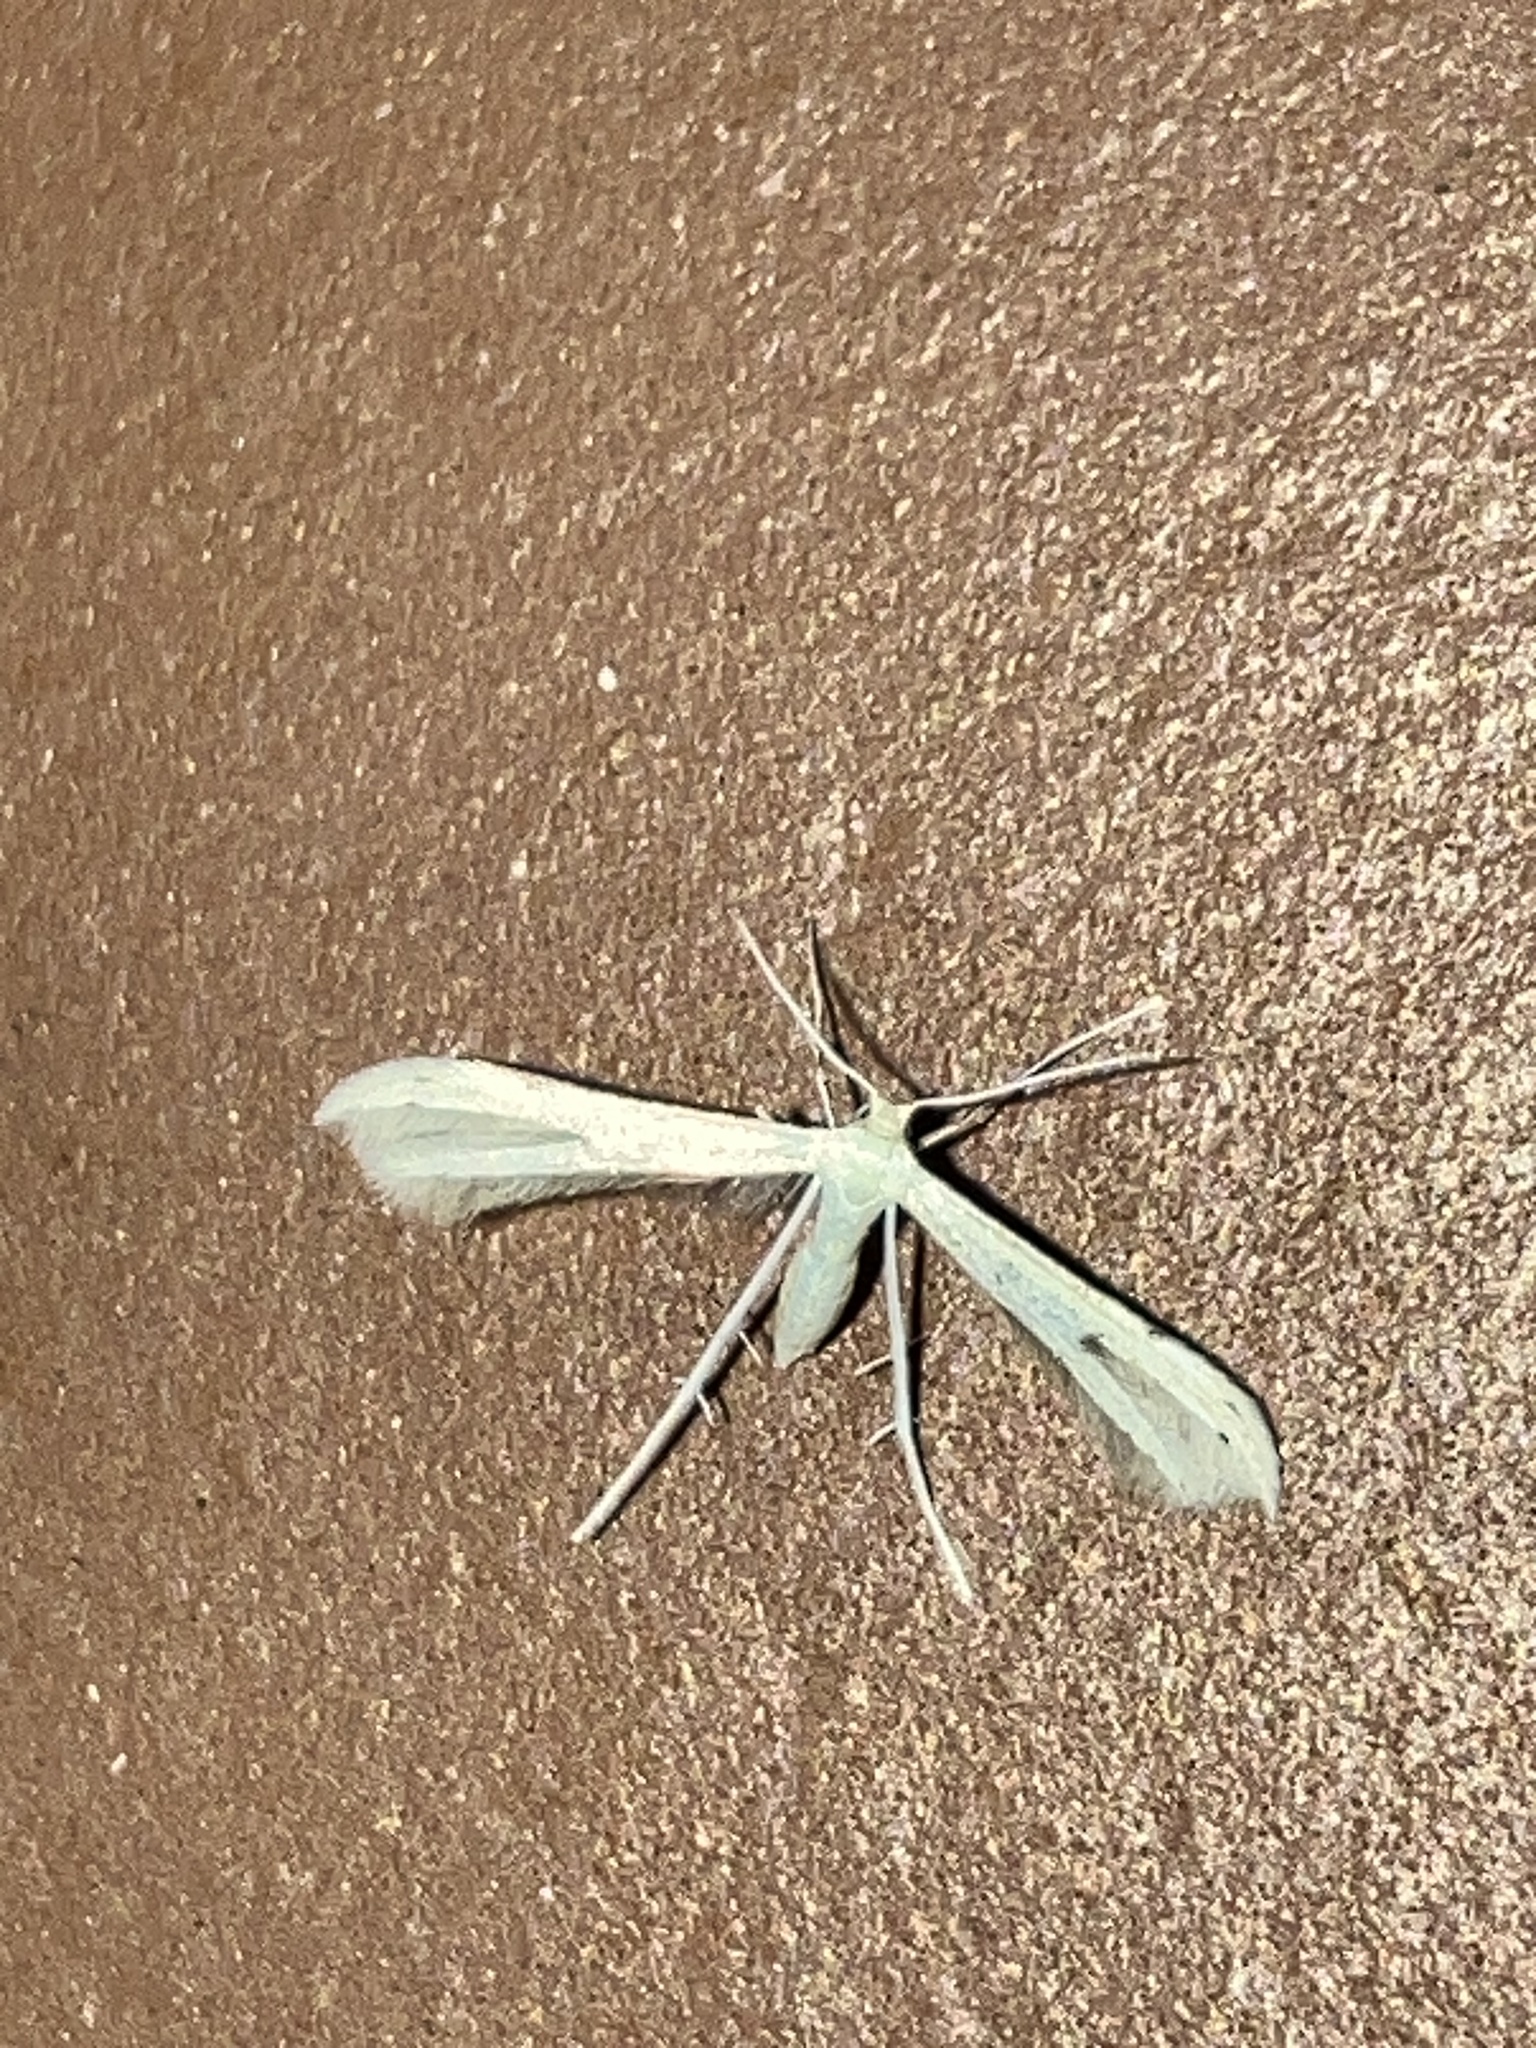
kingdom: Animalia
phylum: Arthropoda
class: Insecta
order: Lepidoptera
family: Pterophoridae
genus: Adaina
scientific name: Adaina
